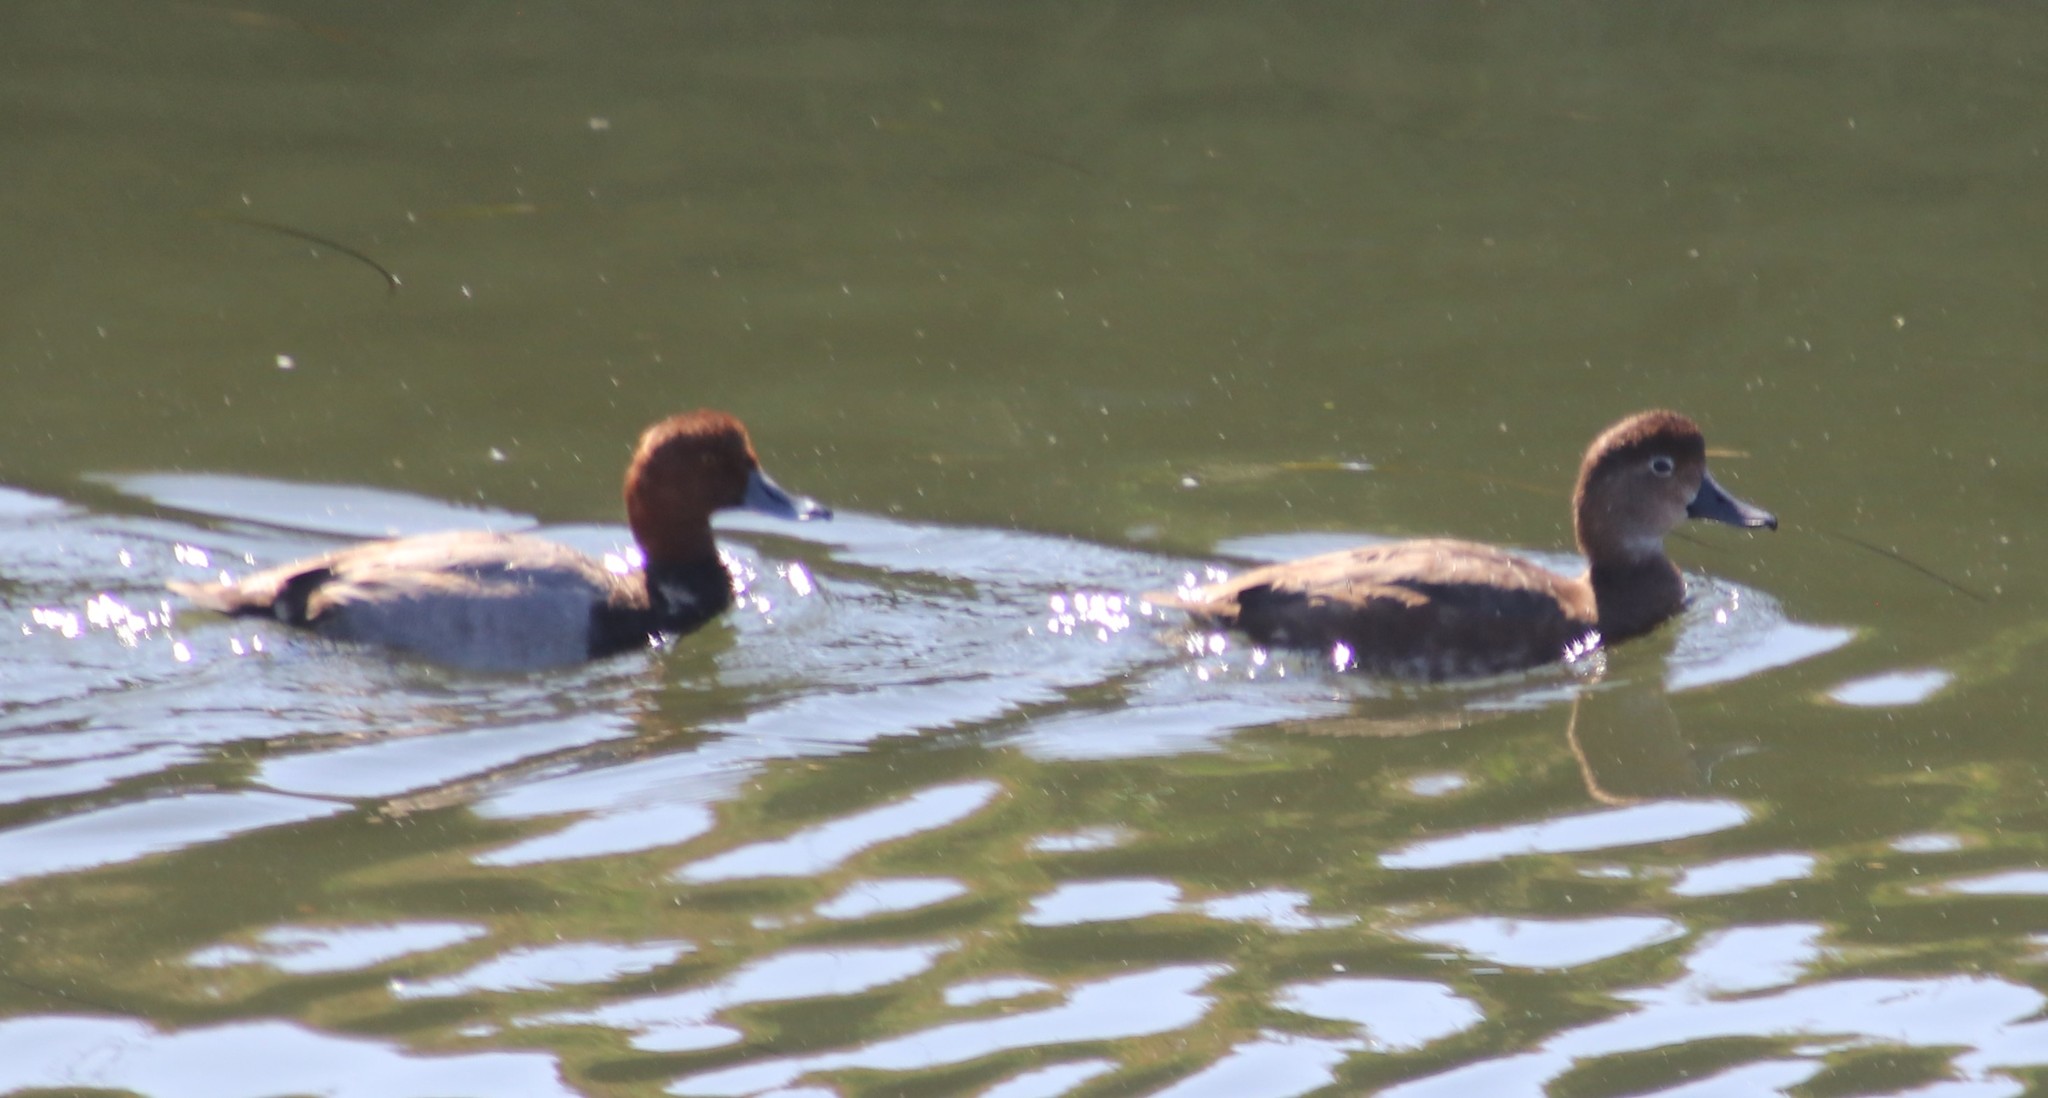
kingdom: Animalia
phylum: Chordata
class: Aves
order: Anseriformes
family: Anatidae
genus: Aythya
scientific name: Aythya americana
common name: Redhead
